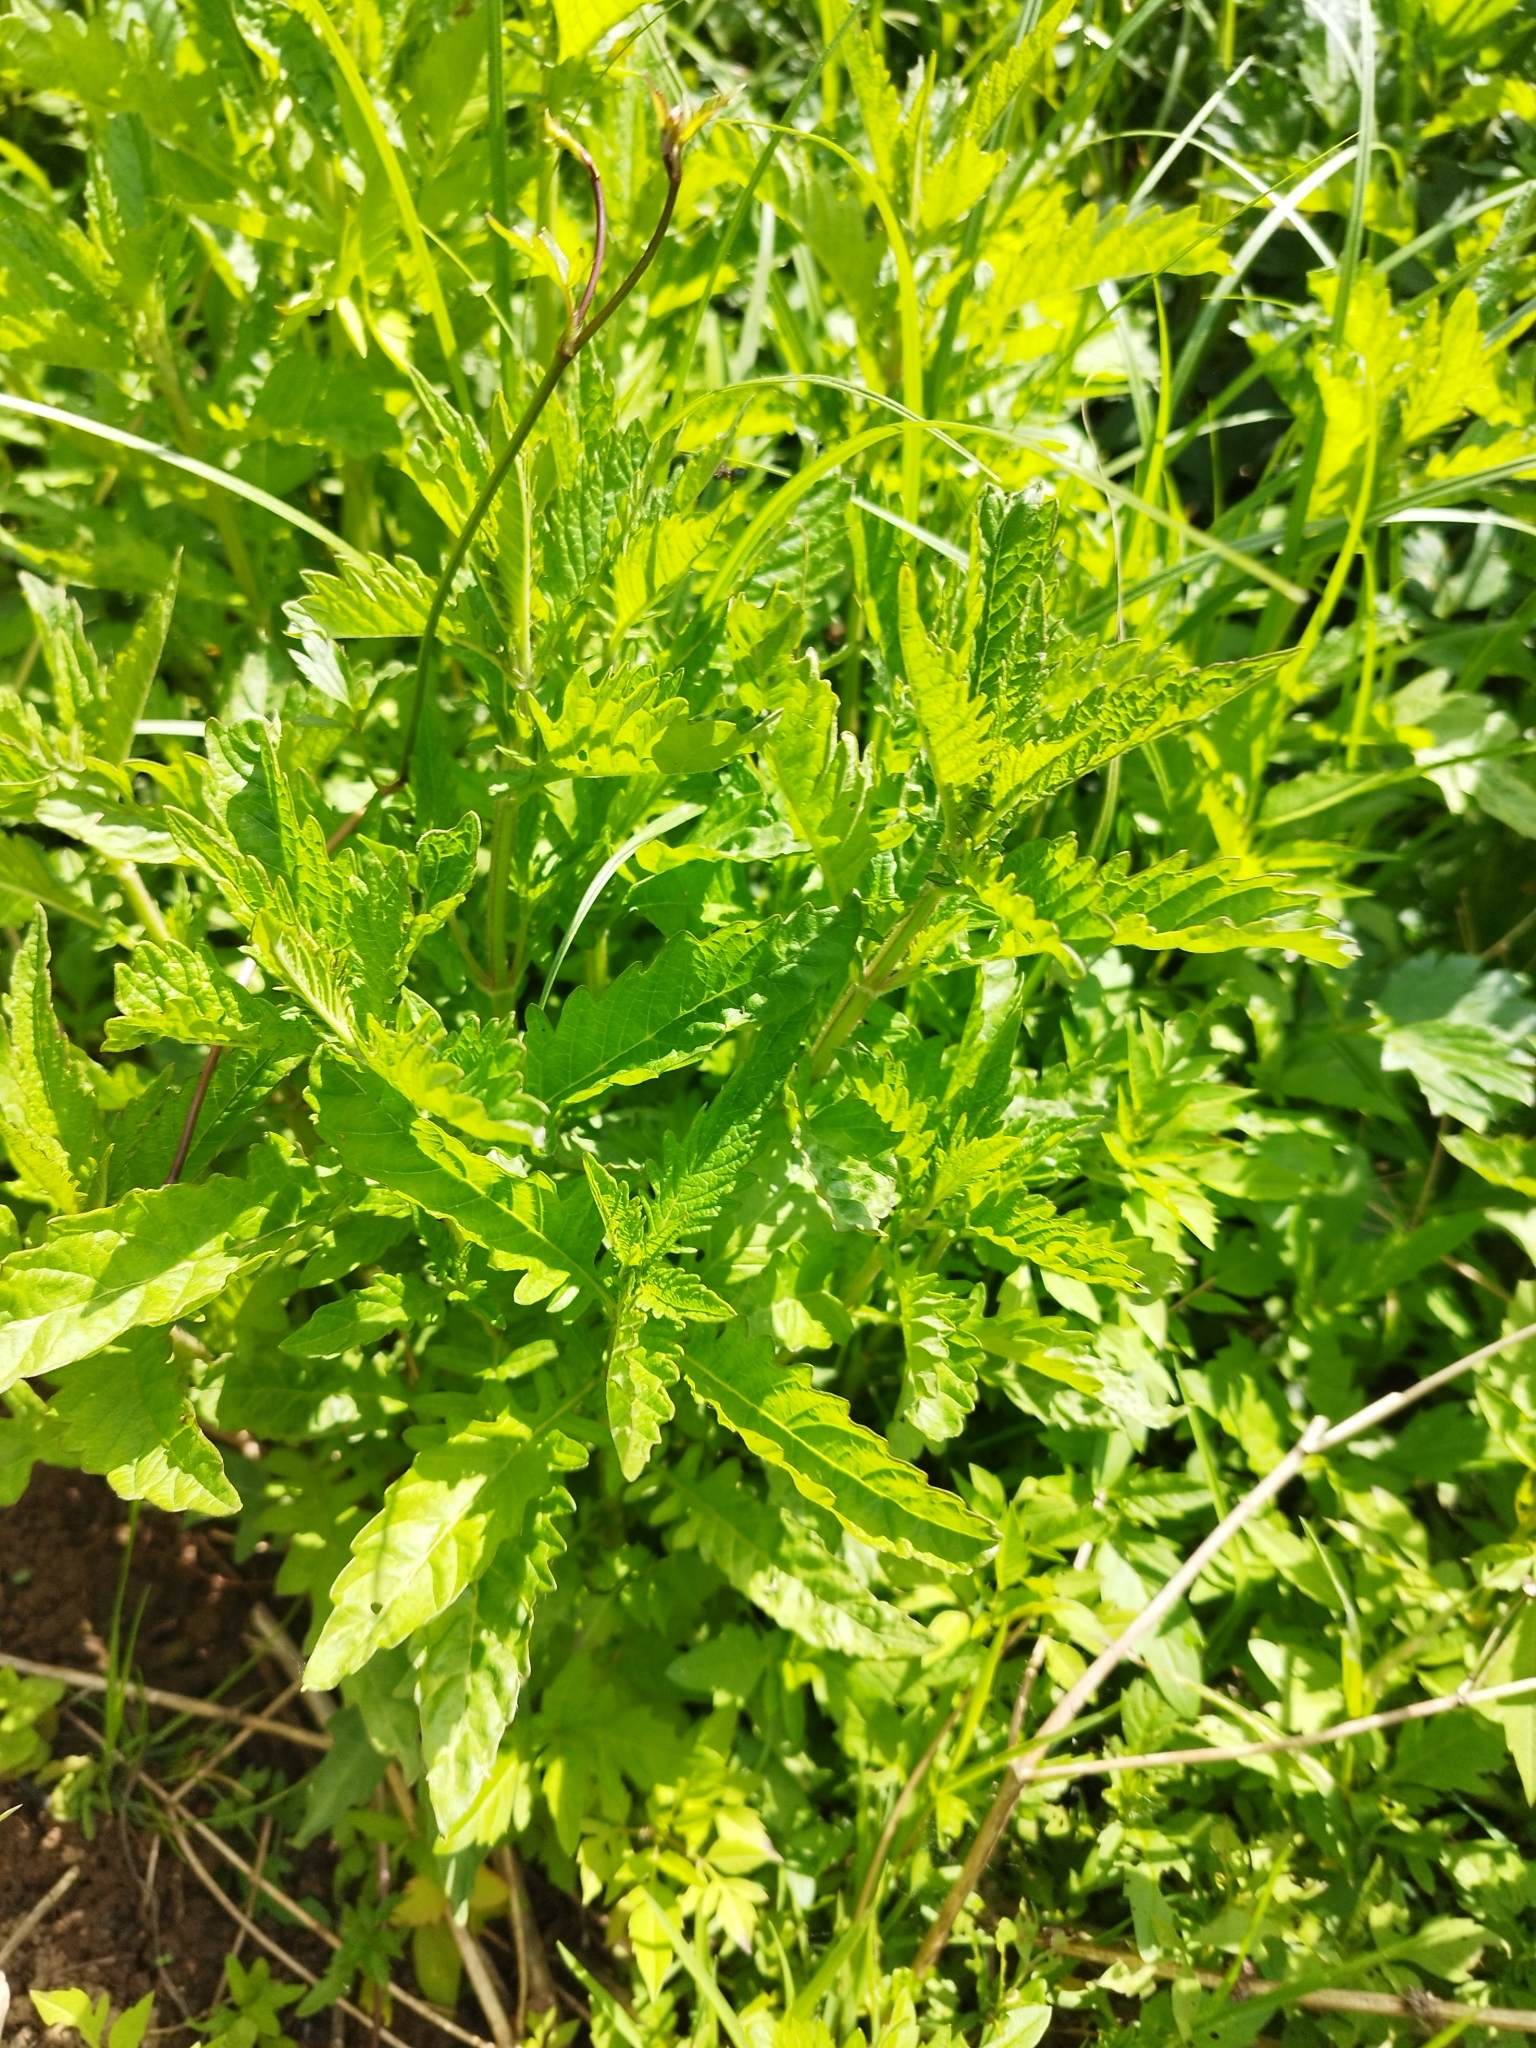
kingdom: Plantae
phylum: Tracheophyta
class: Magnoliopsida
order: Lamiales
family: Lamiaceae
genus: Lycopus
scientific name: Lycopus europaeus
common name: European bugleweed
